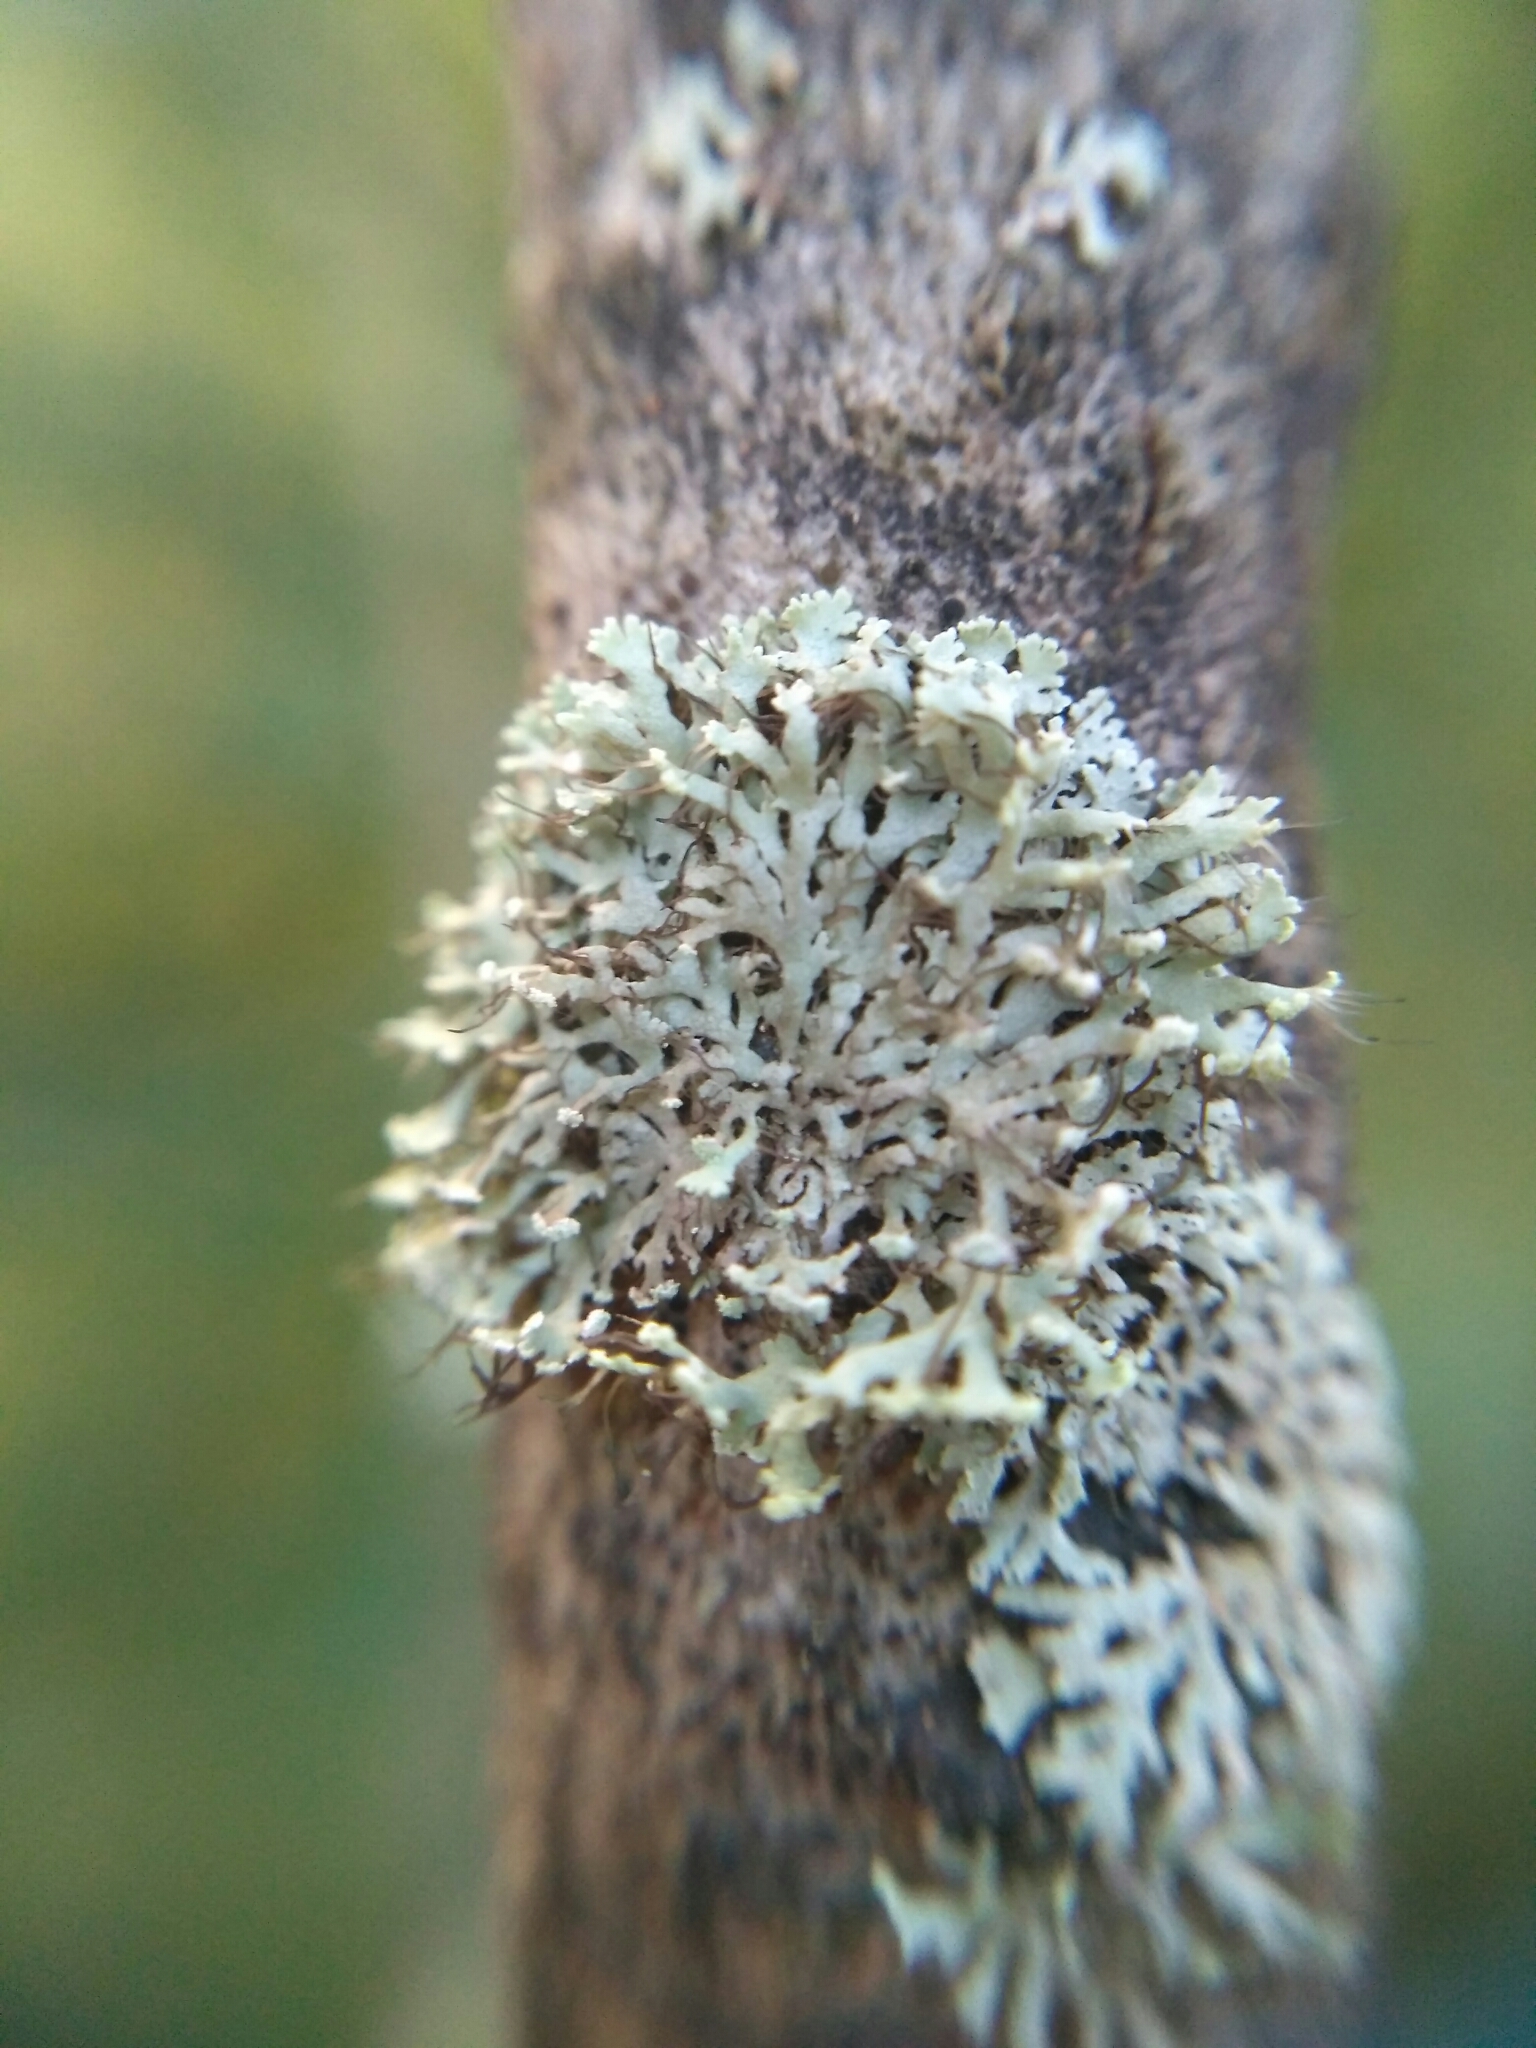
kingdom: Fungi
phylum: Ascomycota
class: Lecanoromycetes
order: Caliciales
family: Physciaceae
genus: Physcia
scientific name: Physcia tenella
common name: Fringed rosette lichen
